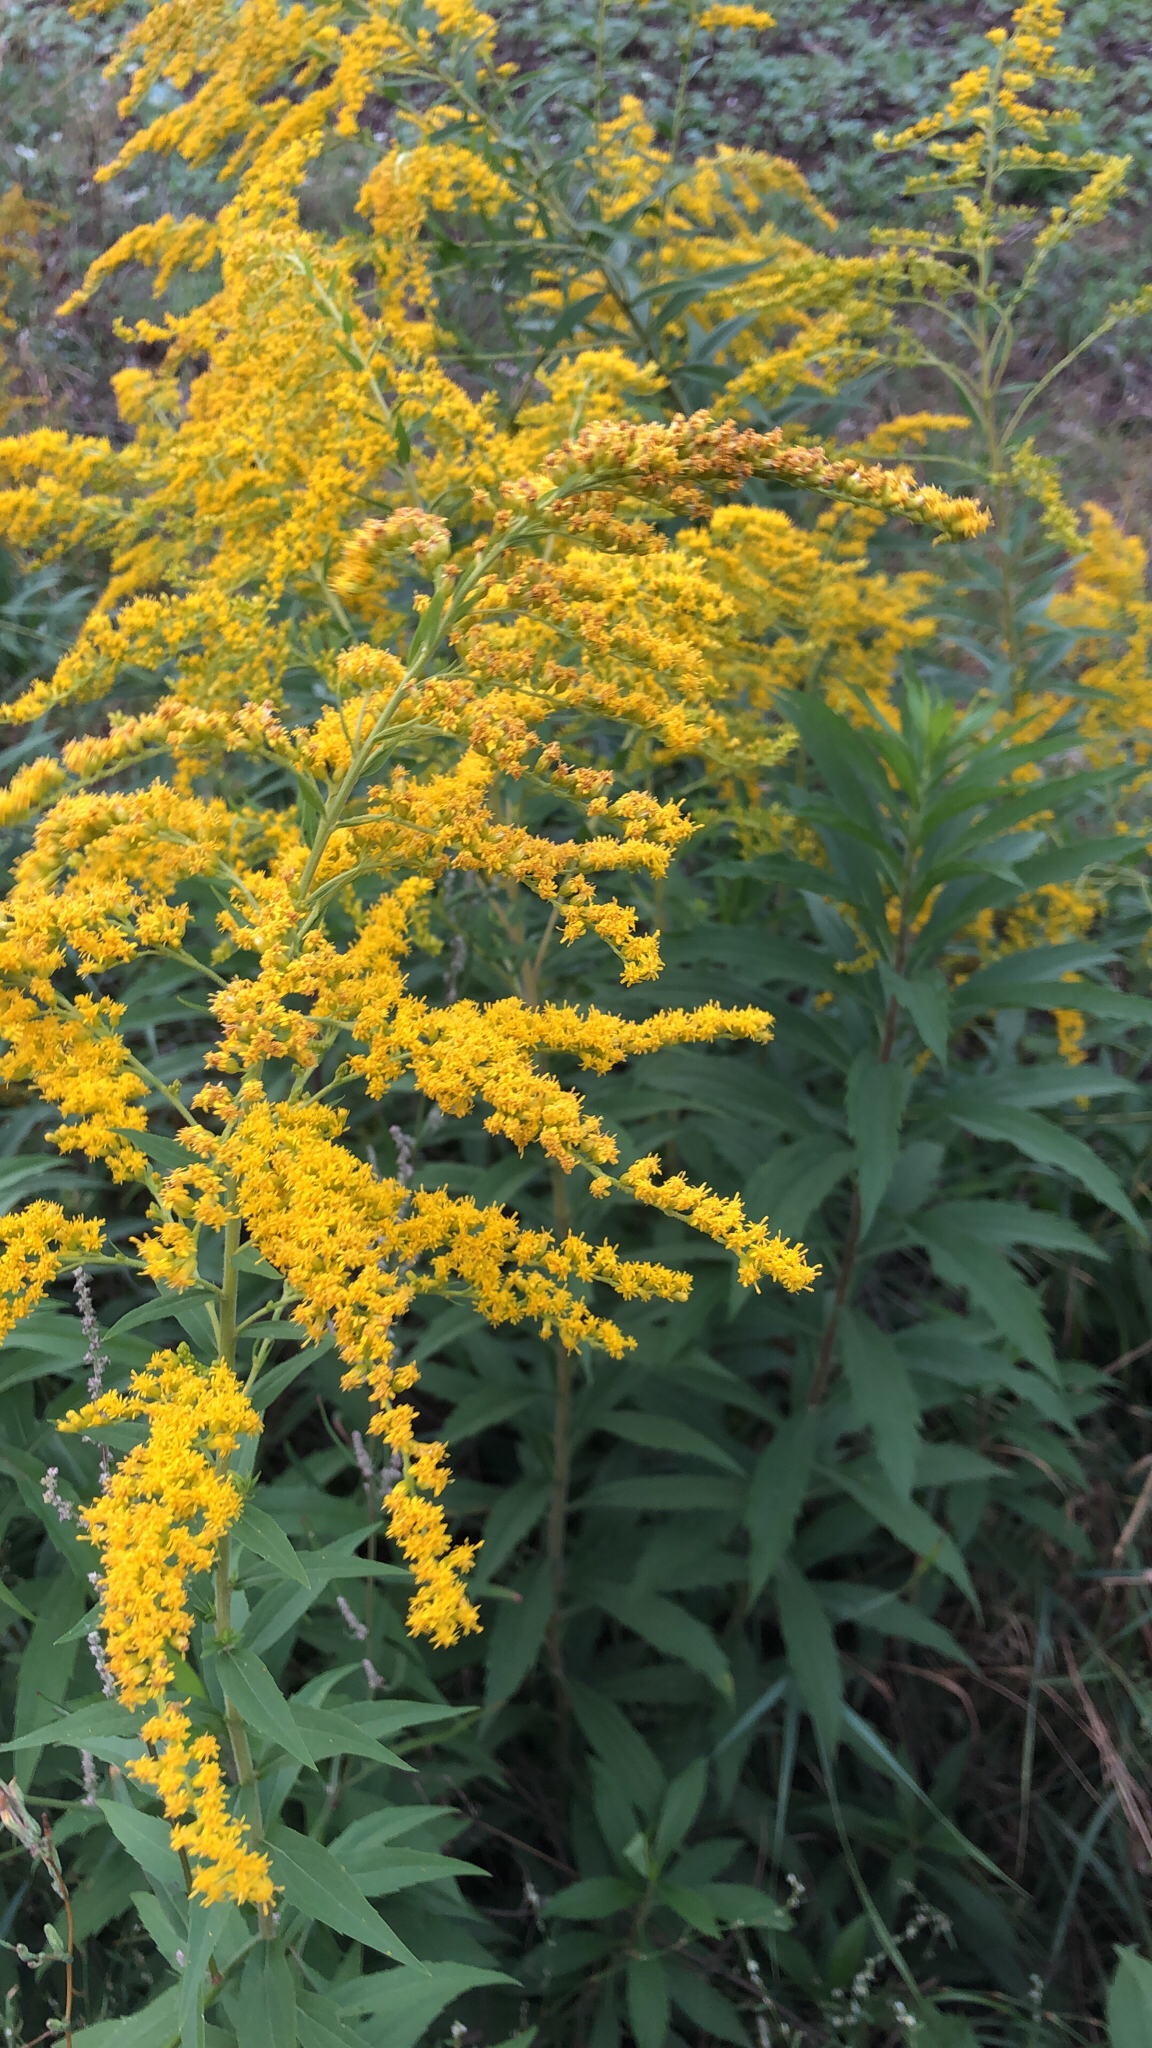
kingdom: Plantae
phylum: Tracheophyta
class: Magnoliopsida
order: Asterales
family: Asteraceae
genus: Solidago
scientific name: Solidago canadensis
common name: Canada goldenrod
